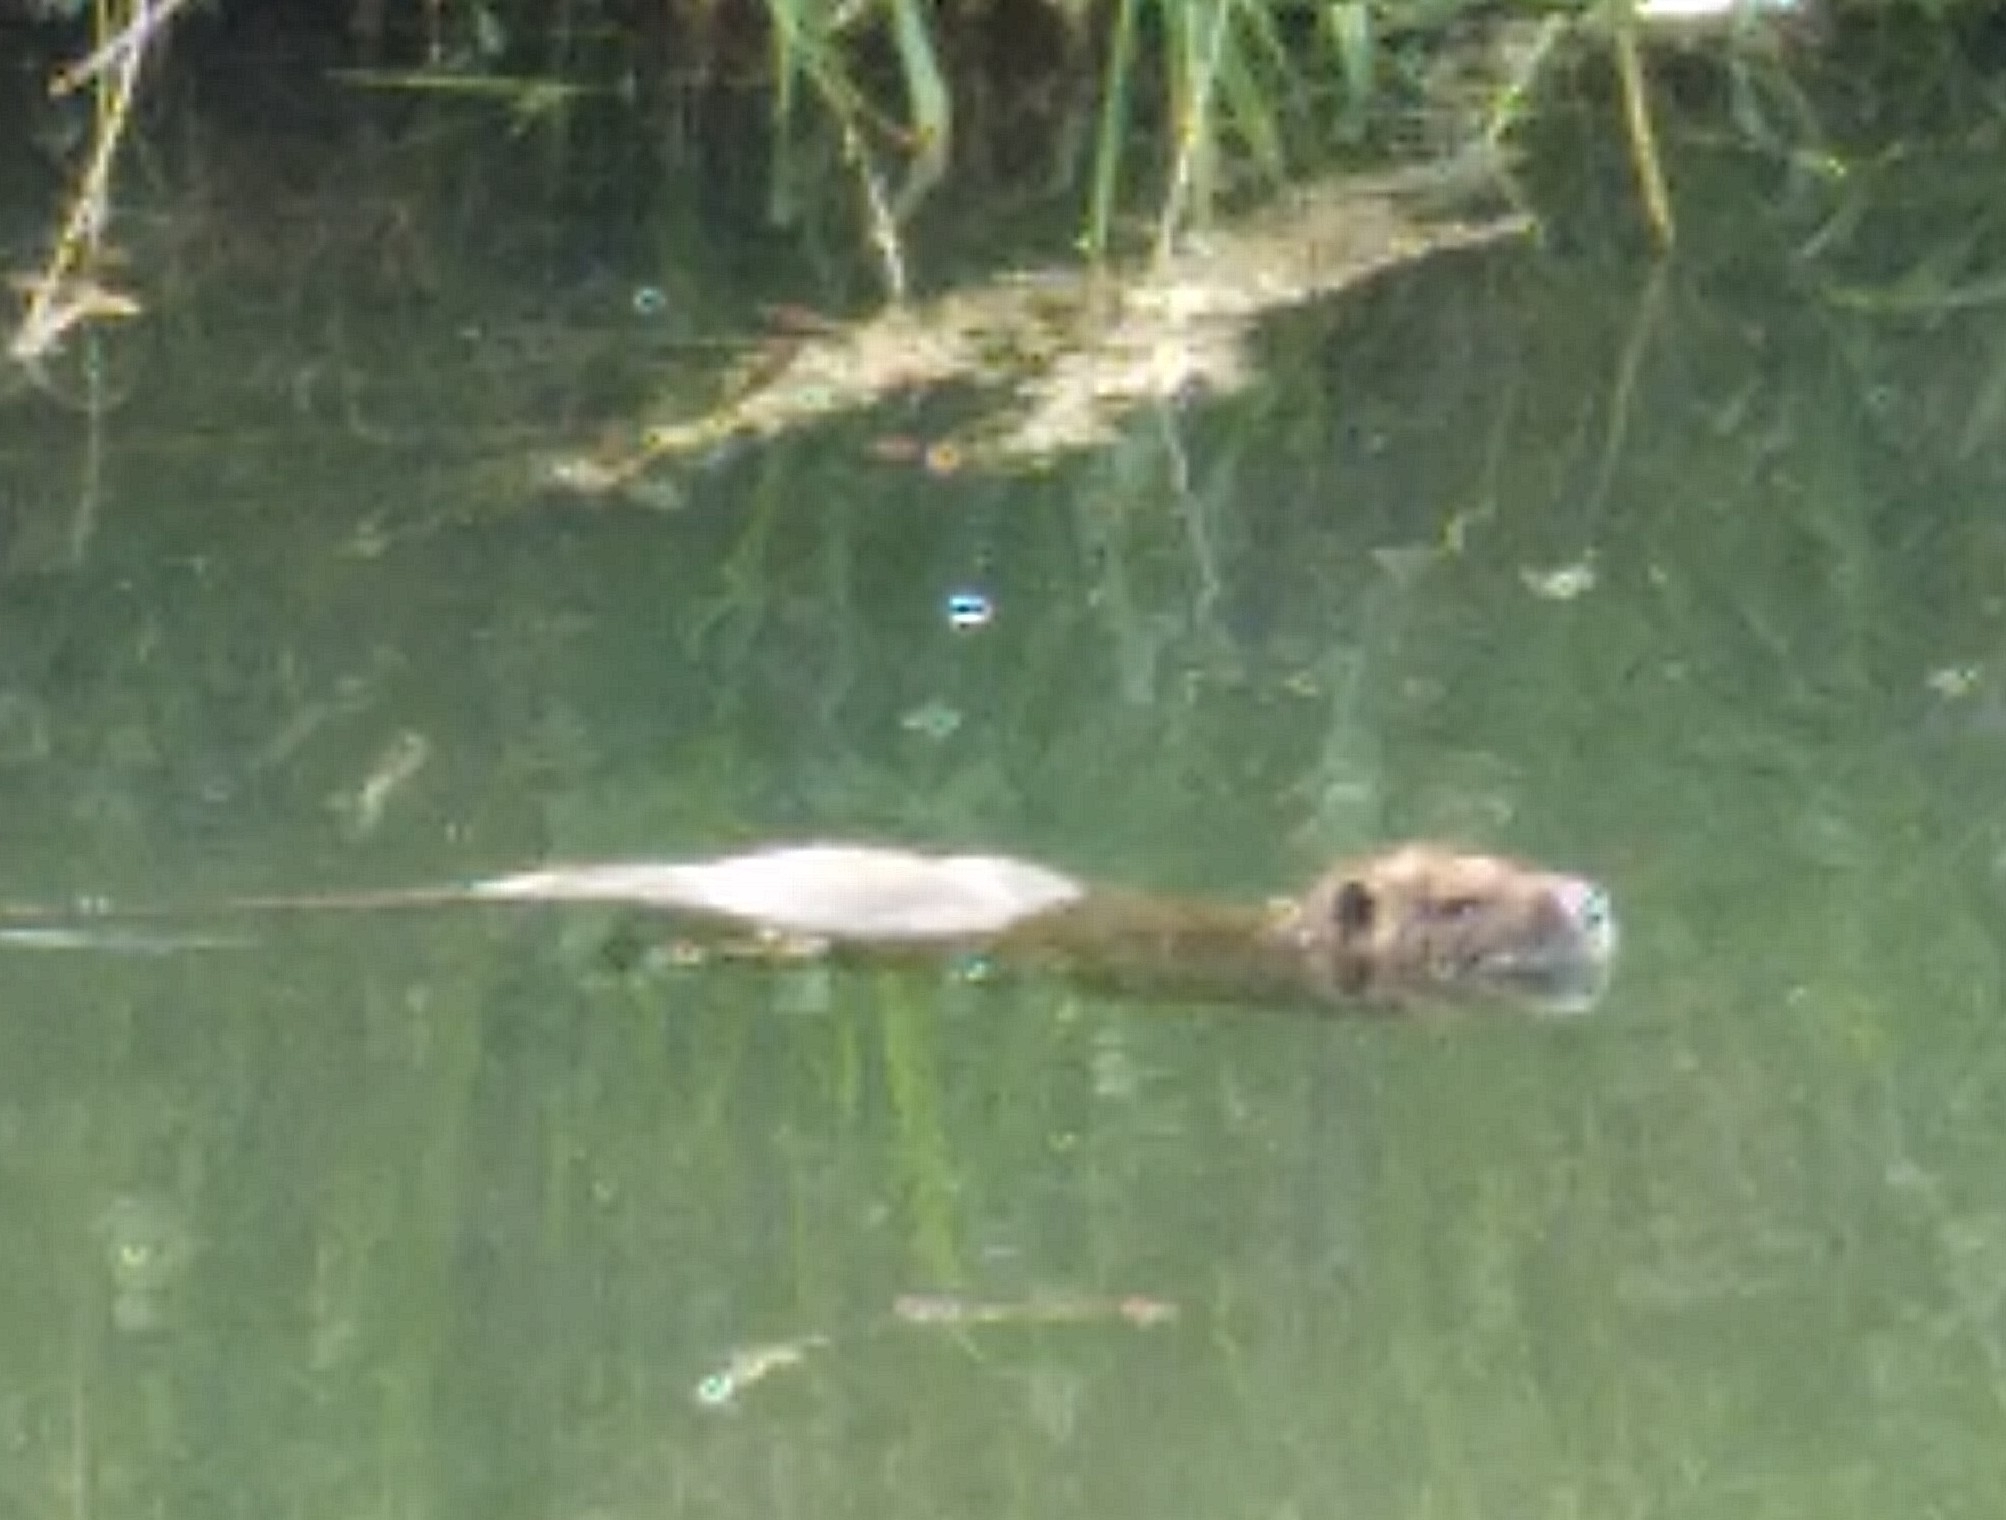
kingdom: Animalia
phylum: Chordata
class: Mammalia
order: Rodentia
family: Myocastoridae
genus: Myocastor
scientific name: Myocastor coypus
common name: Coypu
